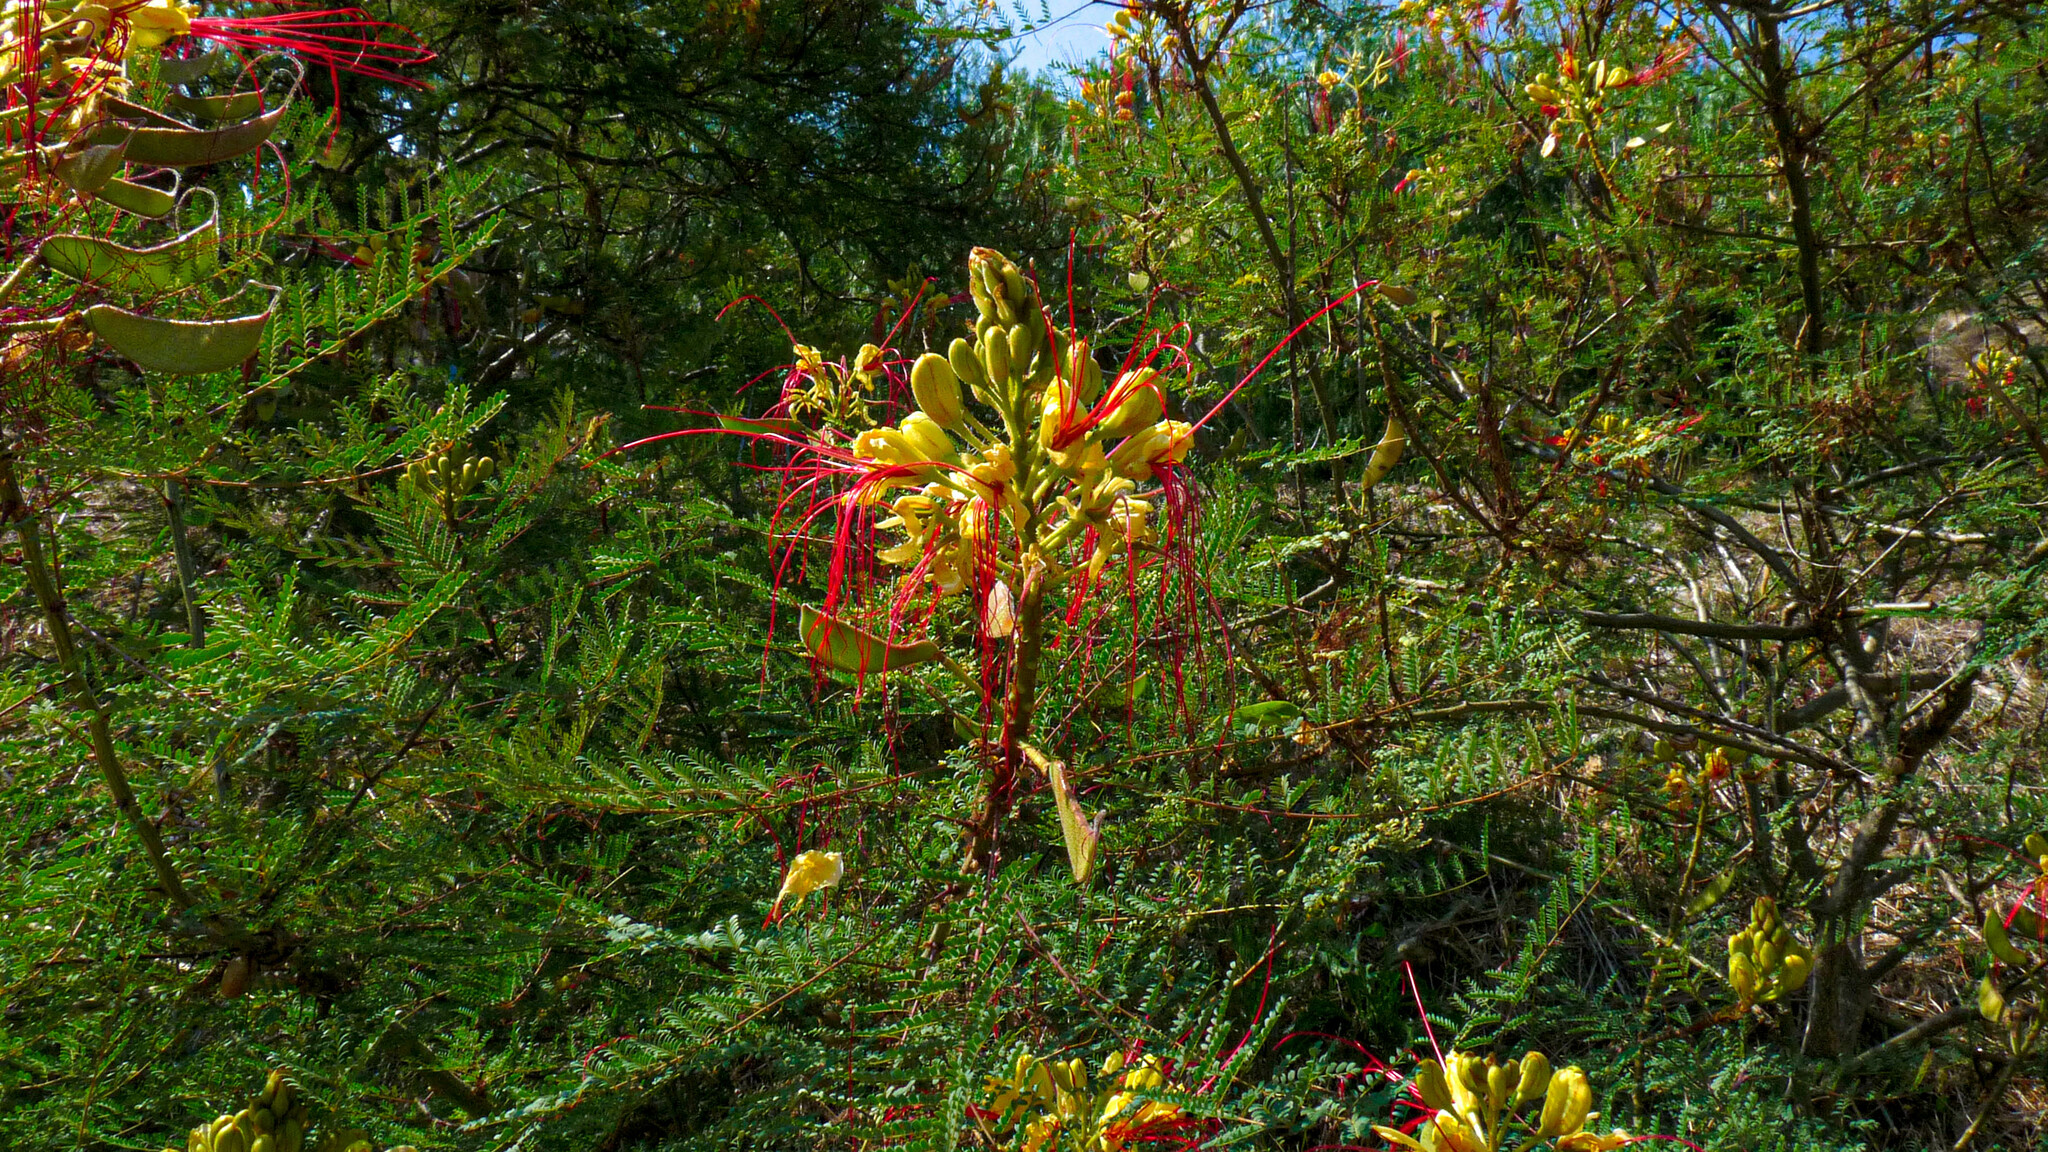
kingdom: Plantae
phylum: Tracheophyta
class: Magnoliopsida
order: Fabales
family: Fabaceae
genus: Erythrostemon
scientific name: Erythrostemon gilliesii
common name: Bird-of-paradise shrub
